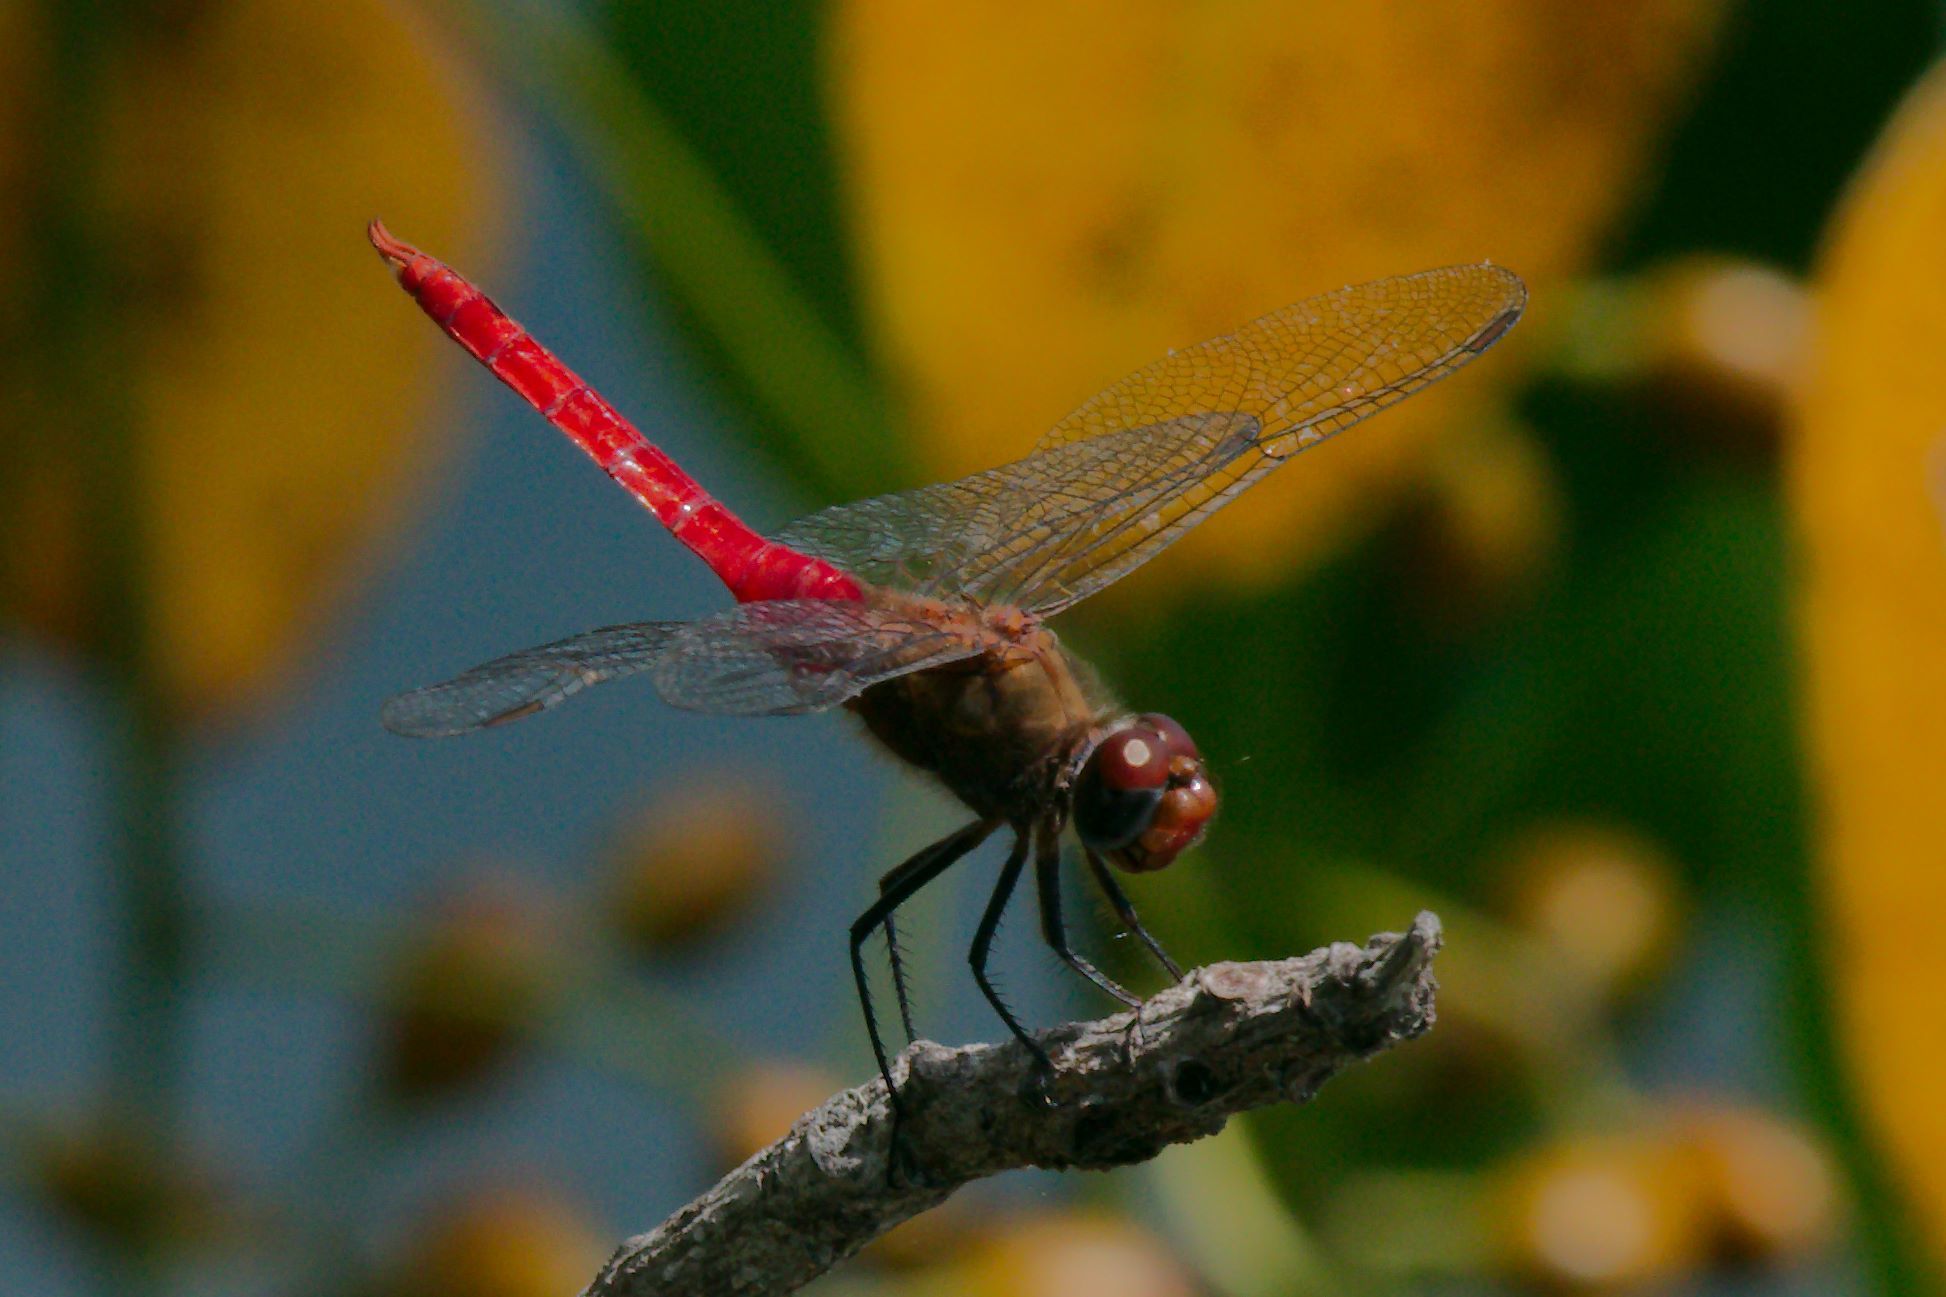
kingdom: Animalia
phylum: Arthropoda
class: Insecta
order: Odonata
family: Libellulidae
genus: Brachymesia
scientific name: Brachymesia furcata
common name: Red-taled pennant
